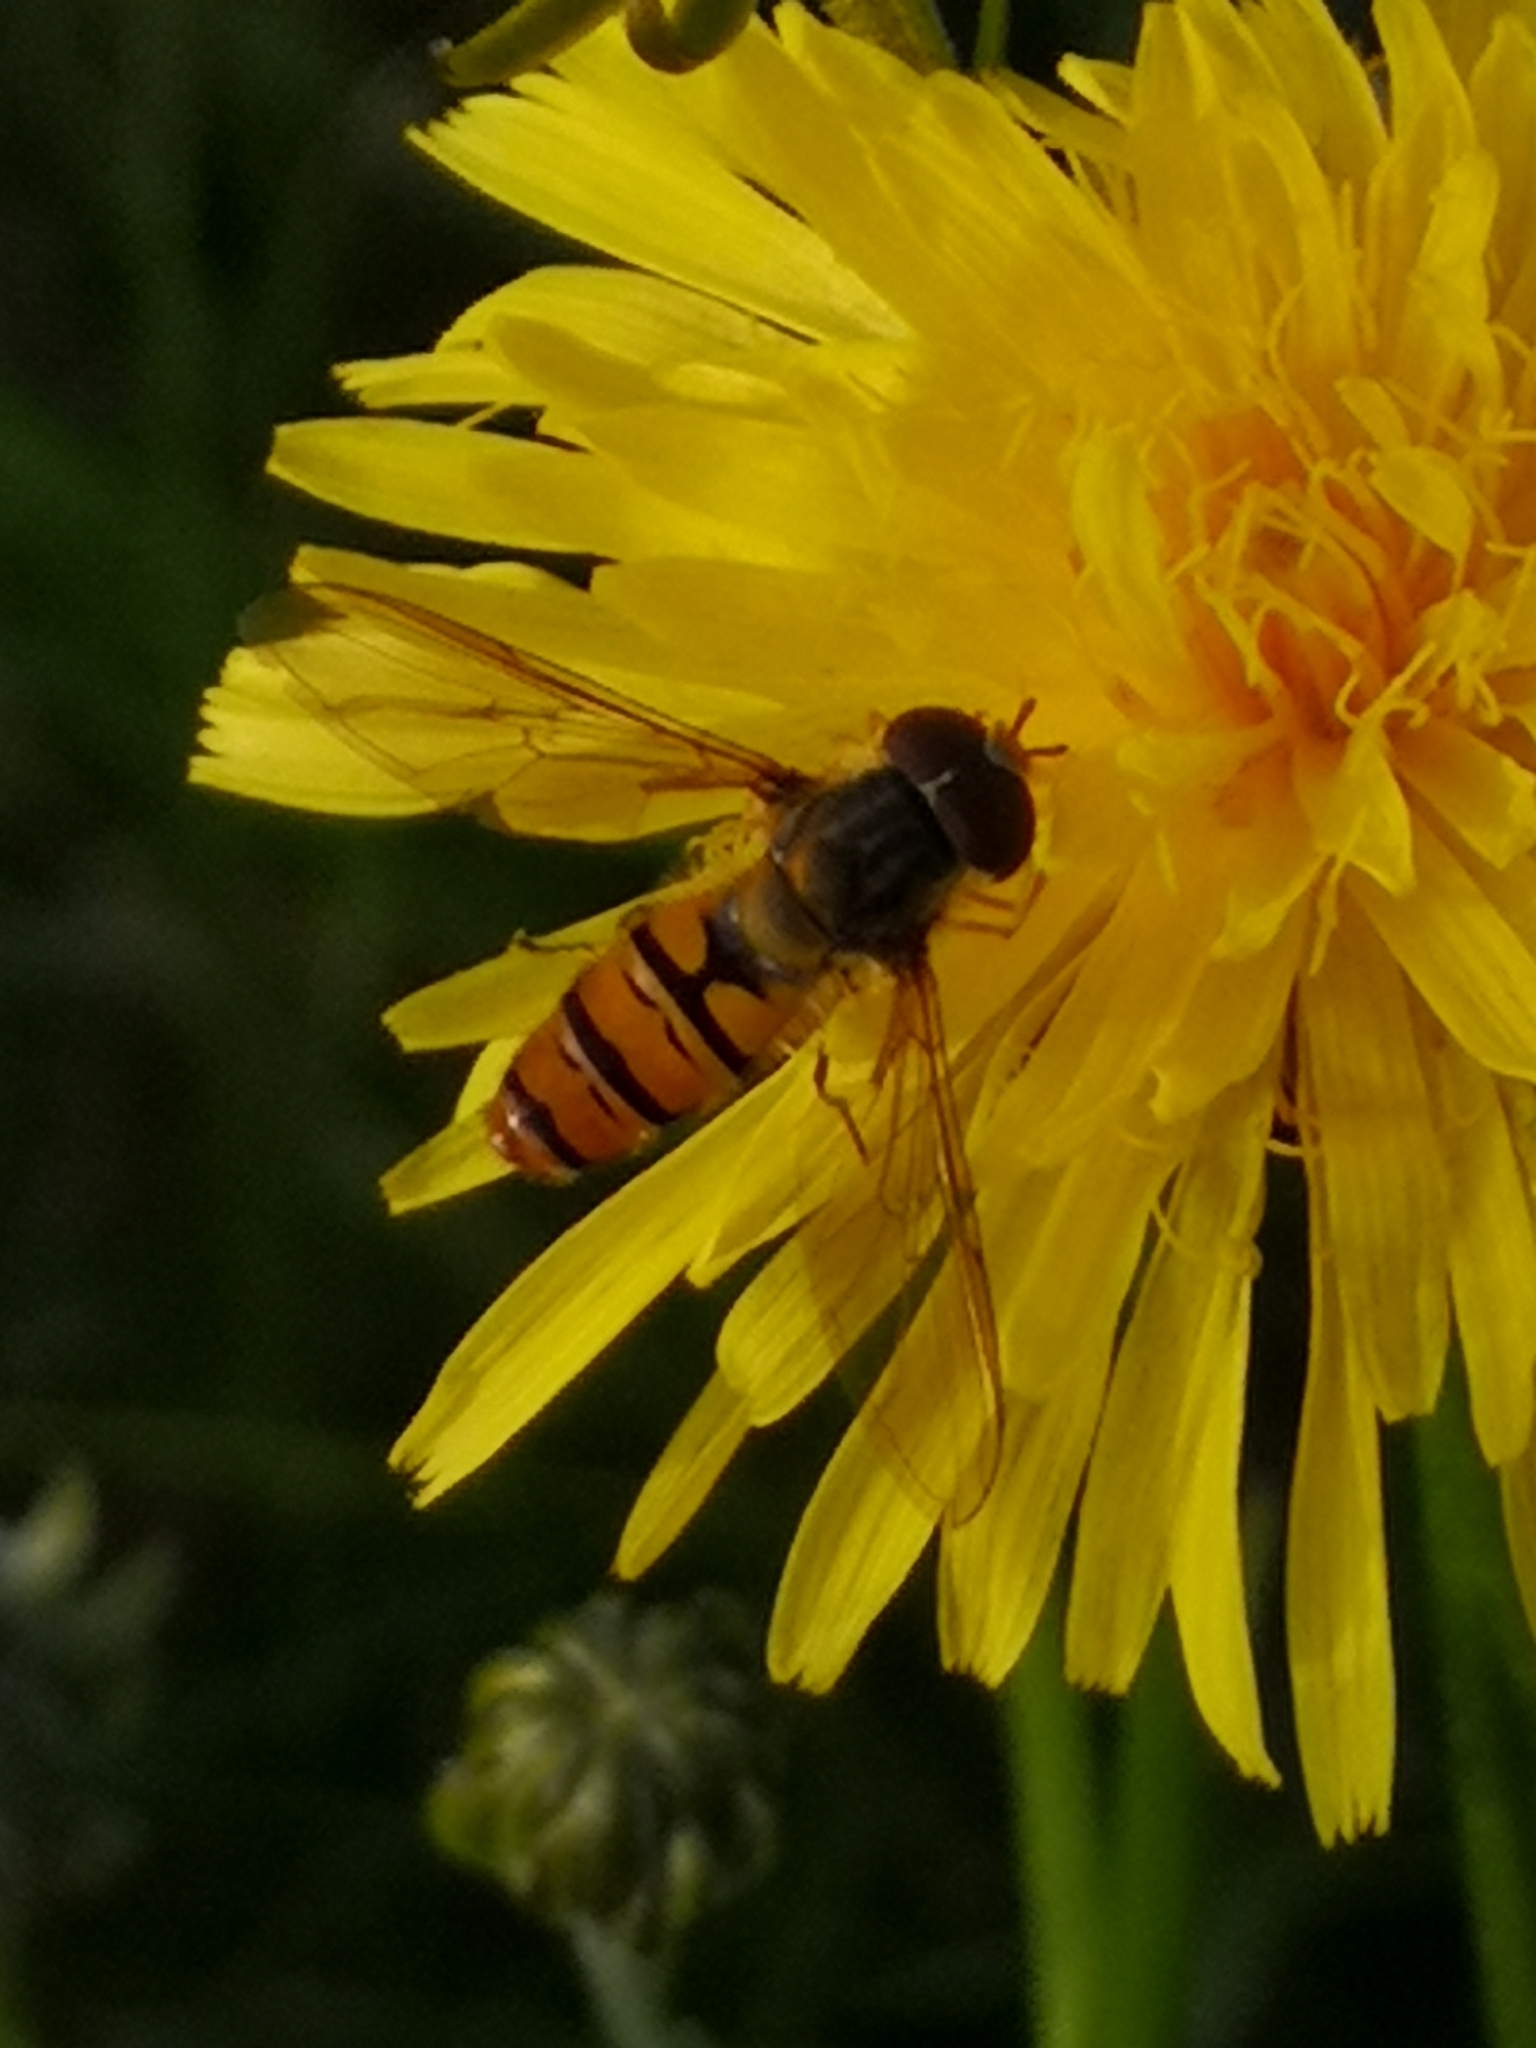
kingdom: Animalia
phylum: Arthropoda
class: Insecta
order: Diptera
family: Syrphidae
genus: Episyrphus
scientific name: Episyrphus balteatus
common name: Marmalade hoverfly
